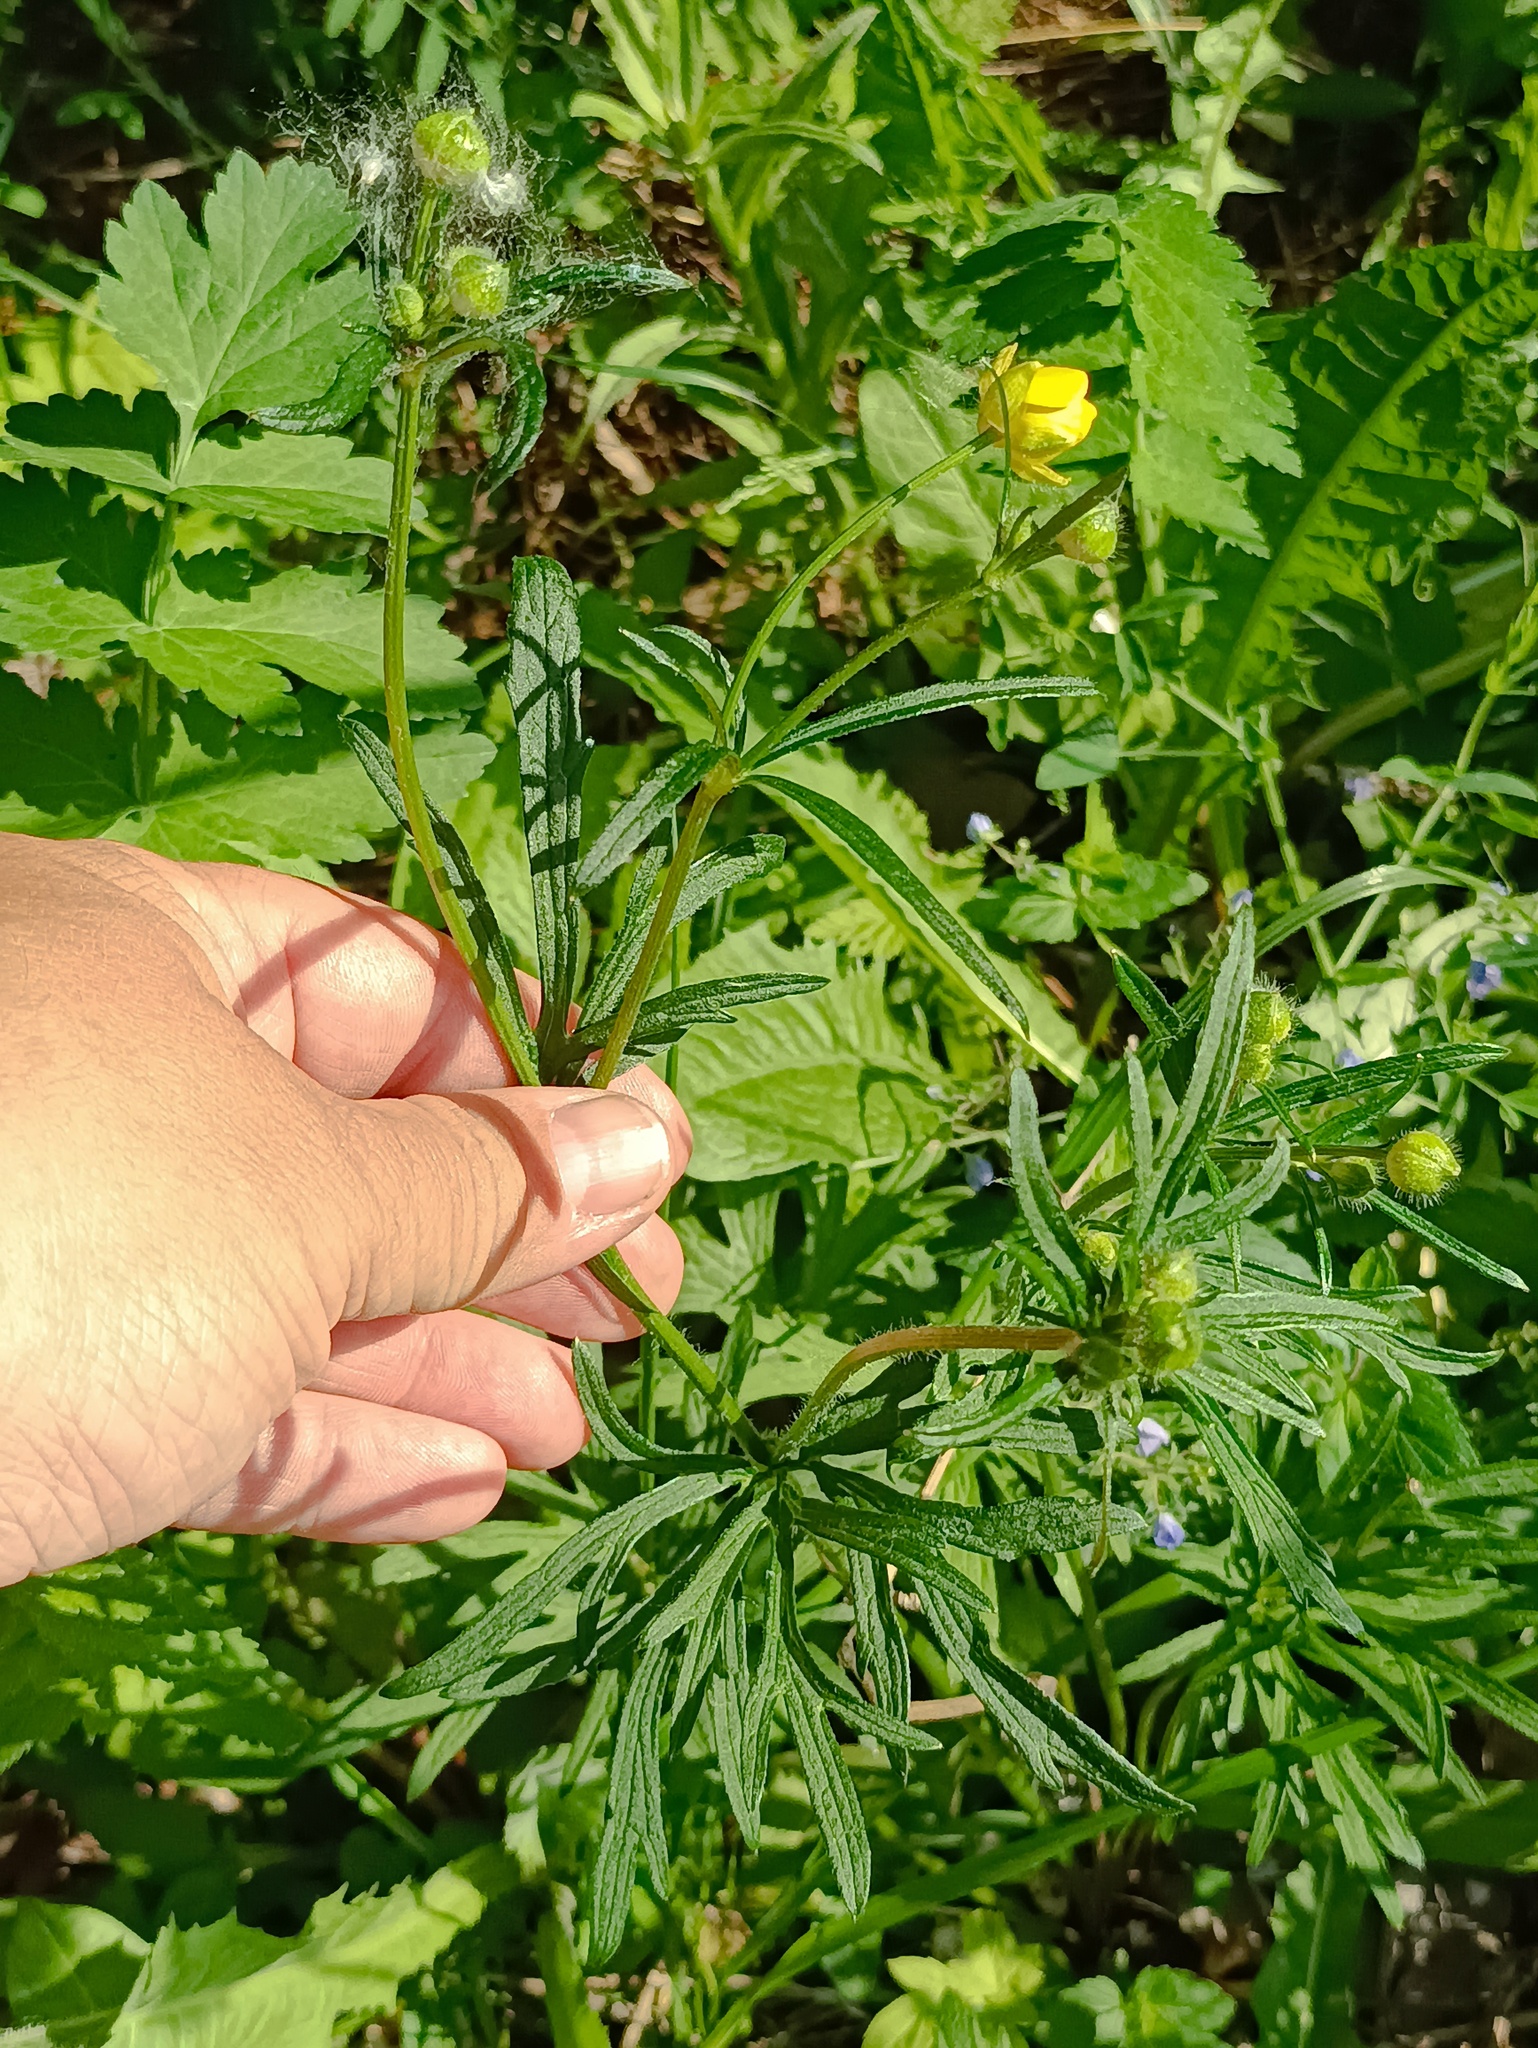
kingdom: Plantae
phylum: Tracheophyta
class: Magnoliopsida
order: Ranunculales
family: Ranunculaceae
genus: Ranunculus
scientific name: Ranunculus polyanthemos
